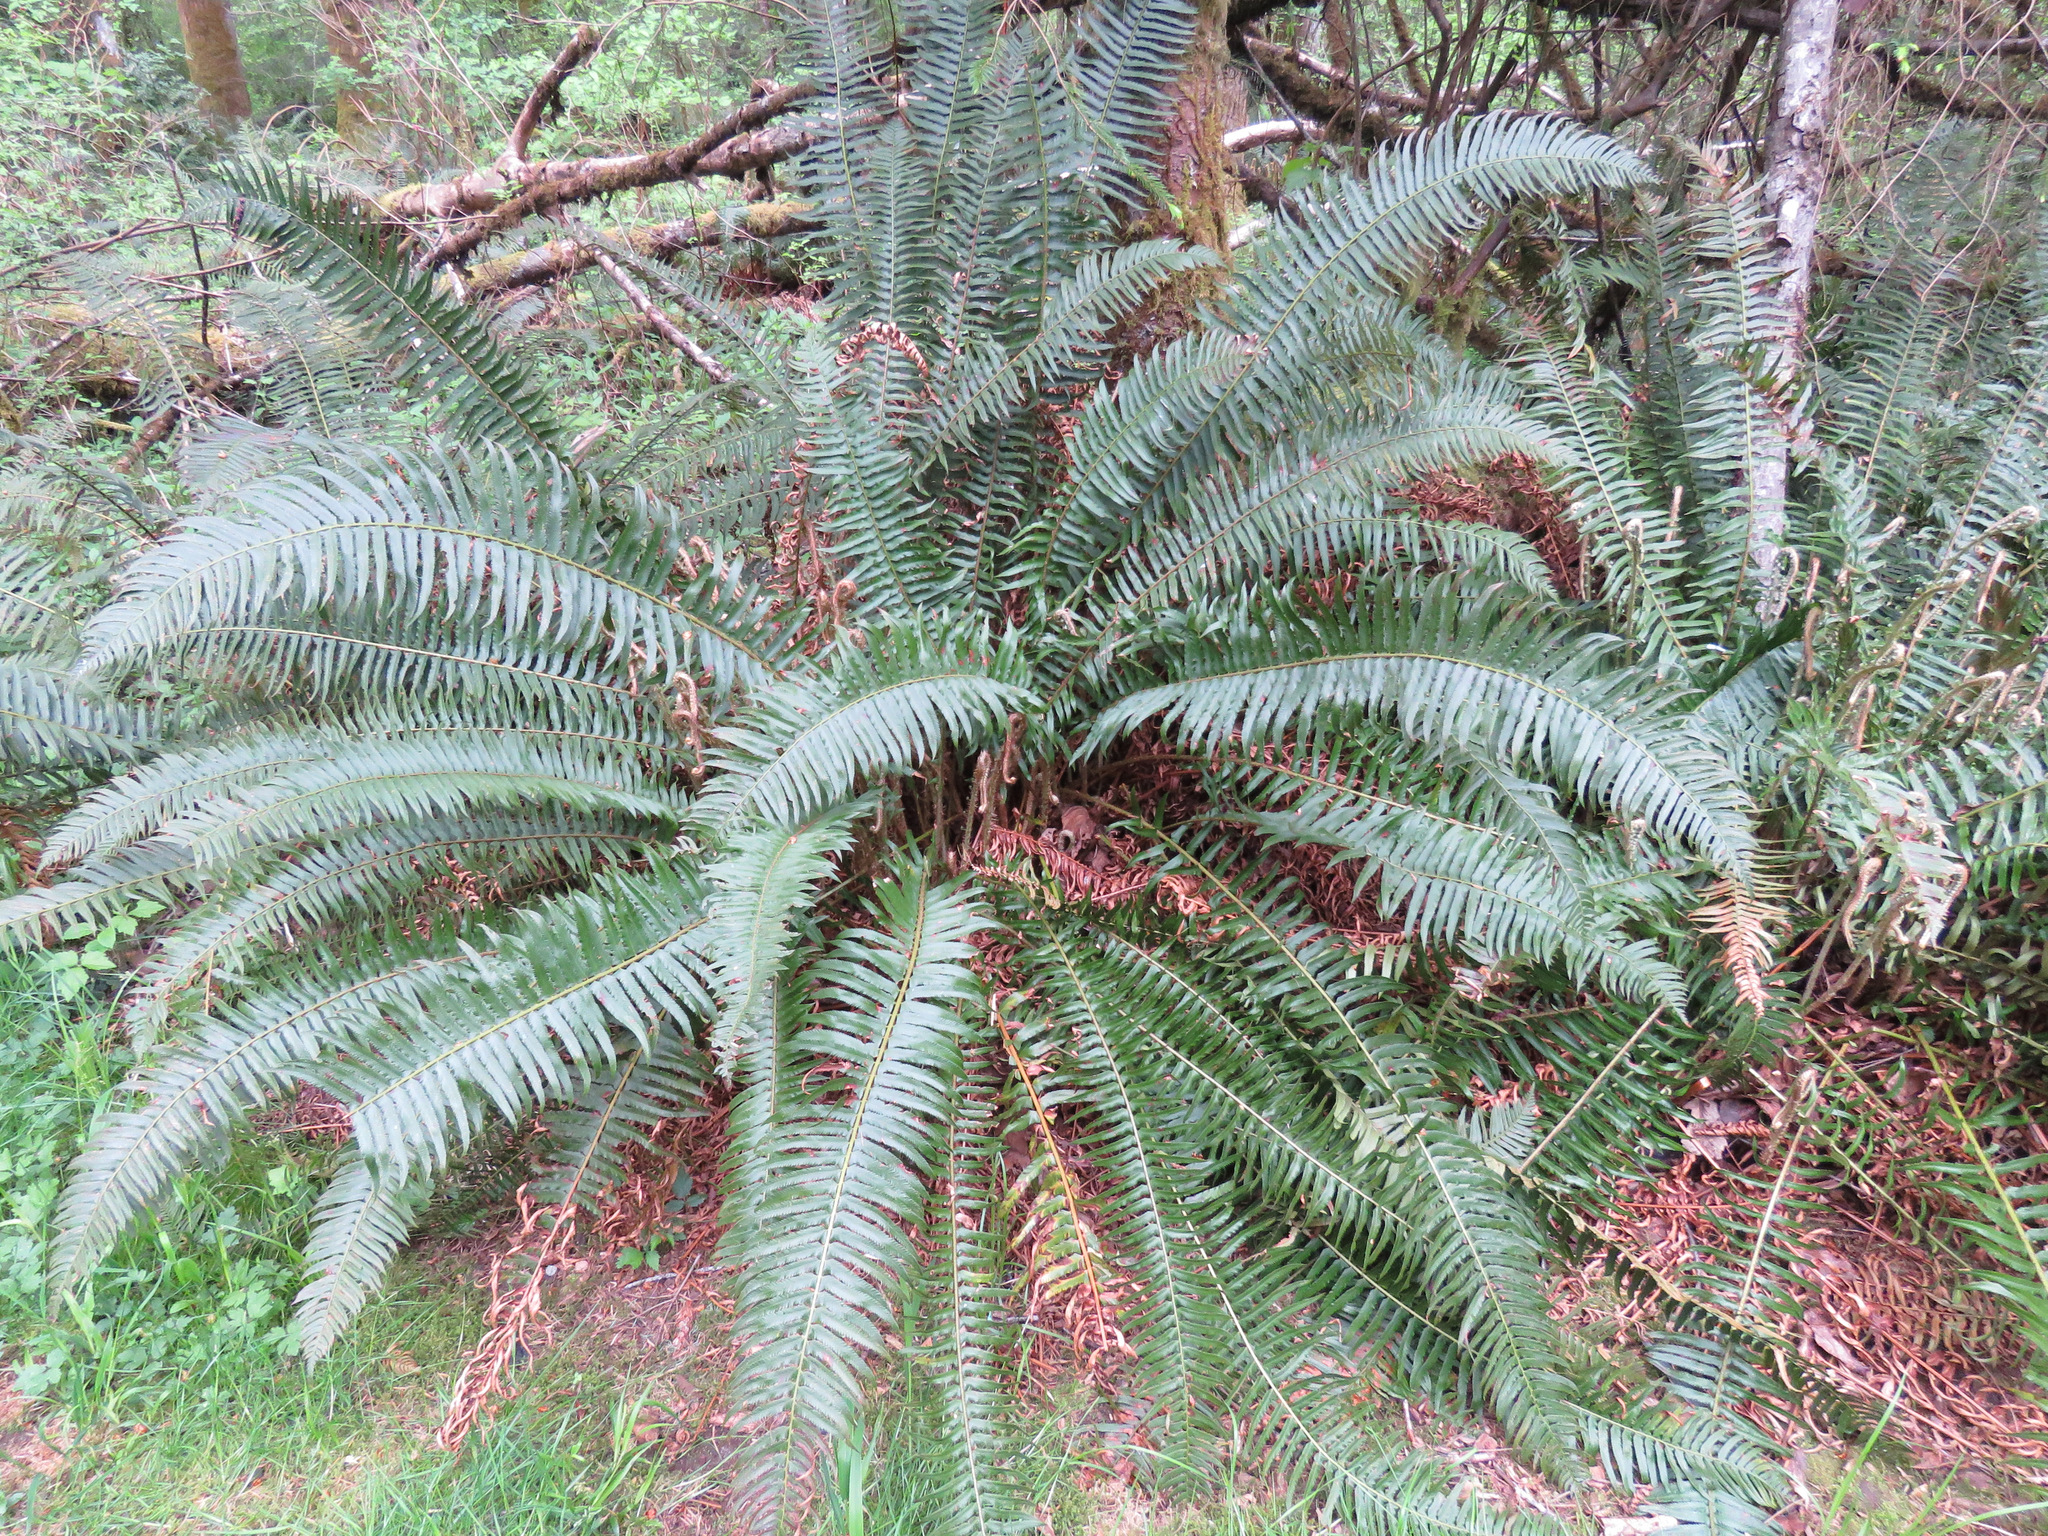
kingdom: Plantae
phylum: Tracheophyta
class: Polypodiopsida
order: Polypodiales
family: Dryopteridaceae
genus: Polystichum
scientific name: Polystichum munitum
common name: Western sword-fern
